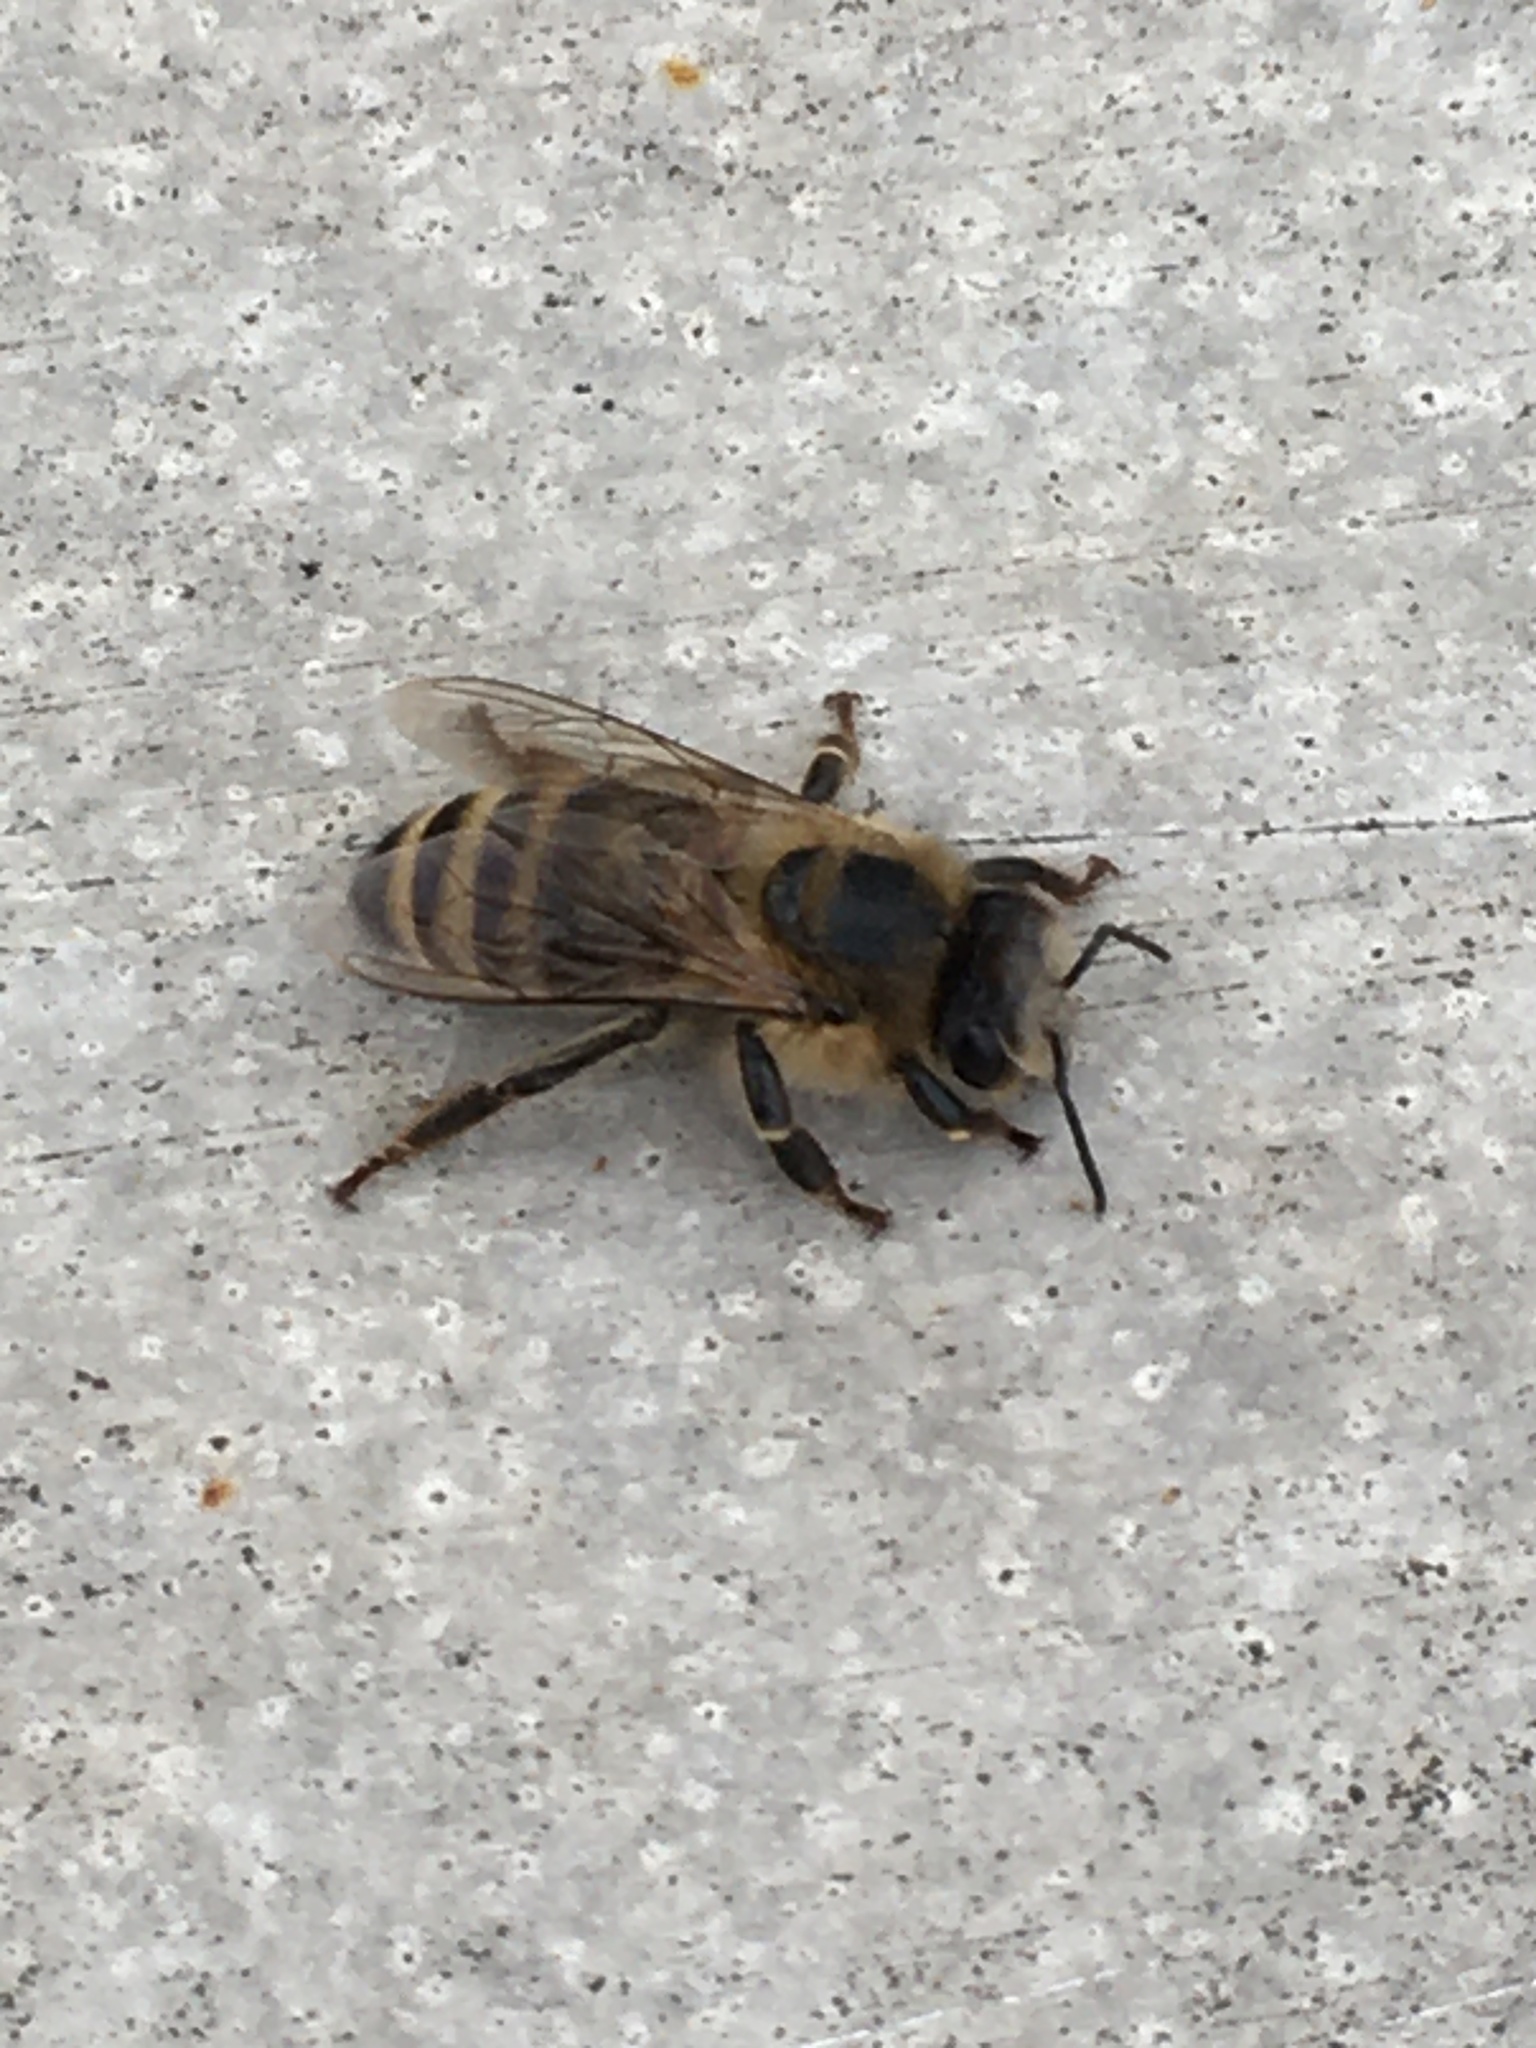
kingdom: Animalia
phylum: Arthropoda
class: Insecta
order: Hymenoptera
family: Apidae
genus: Apis
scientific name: Apis mellifera
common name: Honey bee
